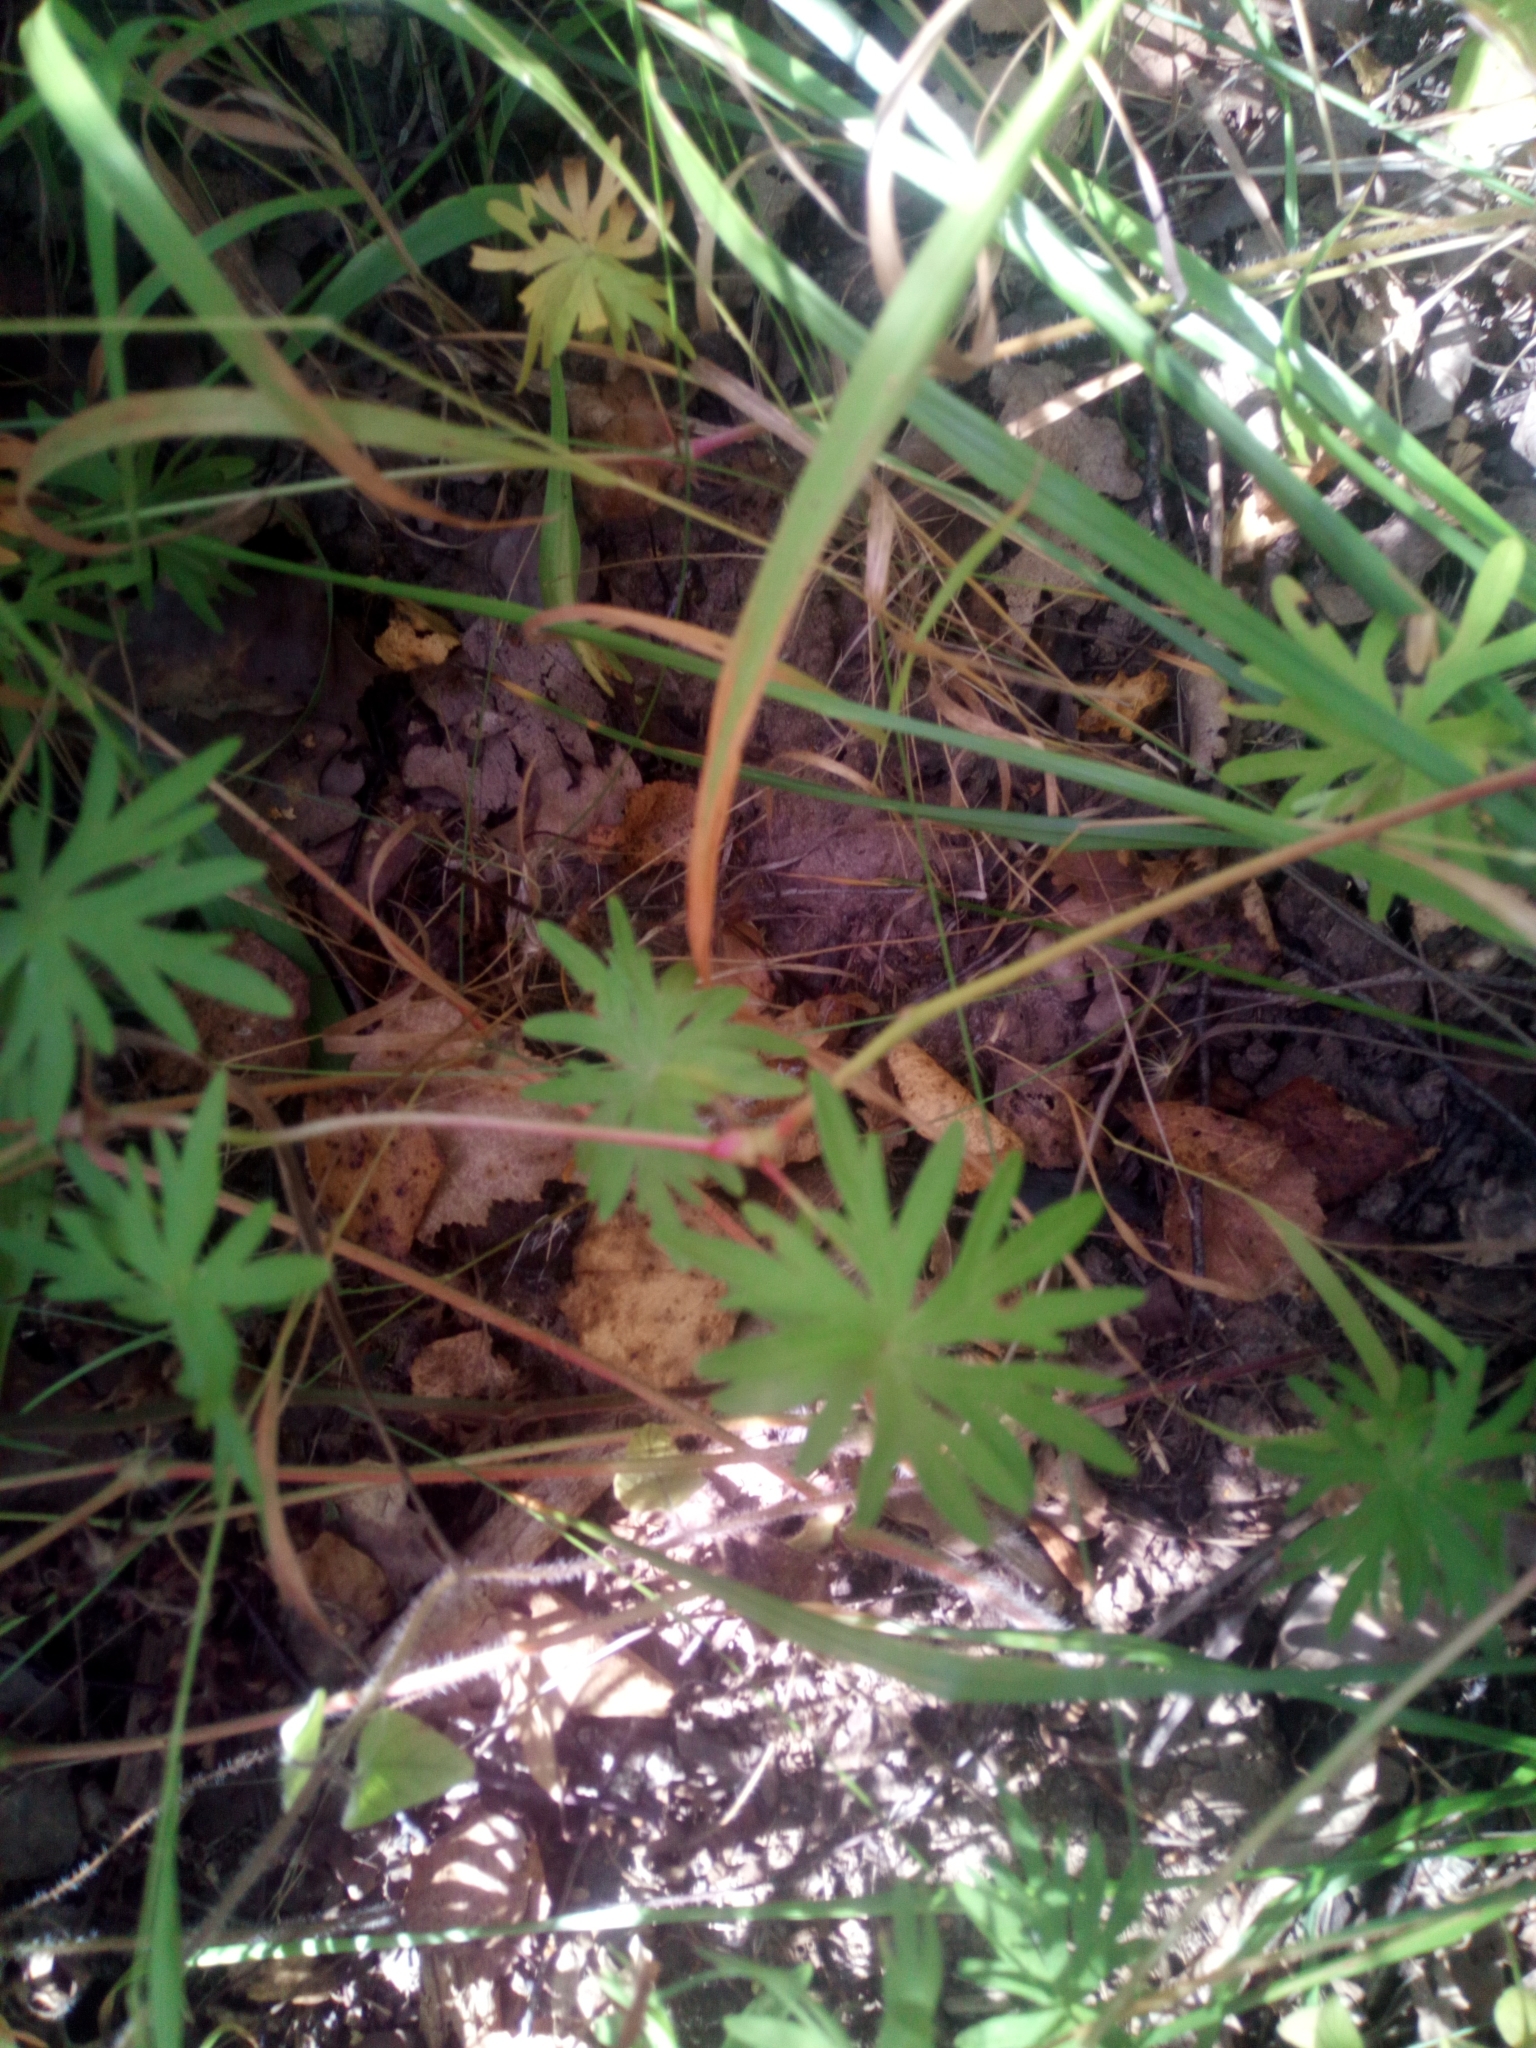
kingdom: Plantae
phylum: Tracheophyta
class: Magnoliopsida
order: Geraniales
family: Geraniaceae
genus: Geranium
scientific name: Geranium sanguineum
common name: Bloody crane's-bill
